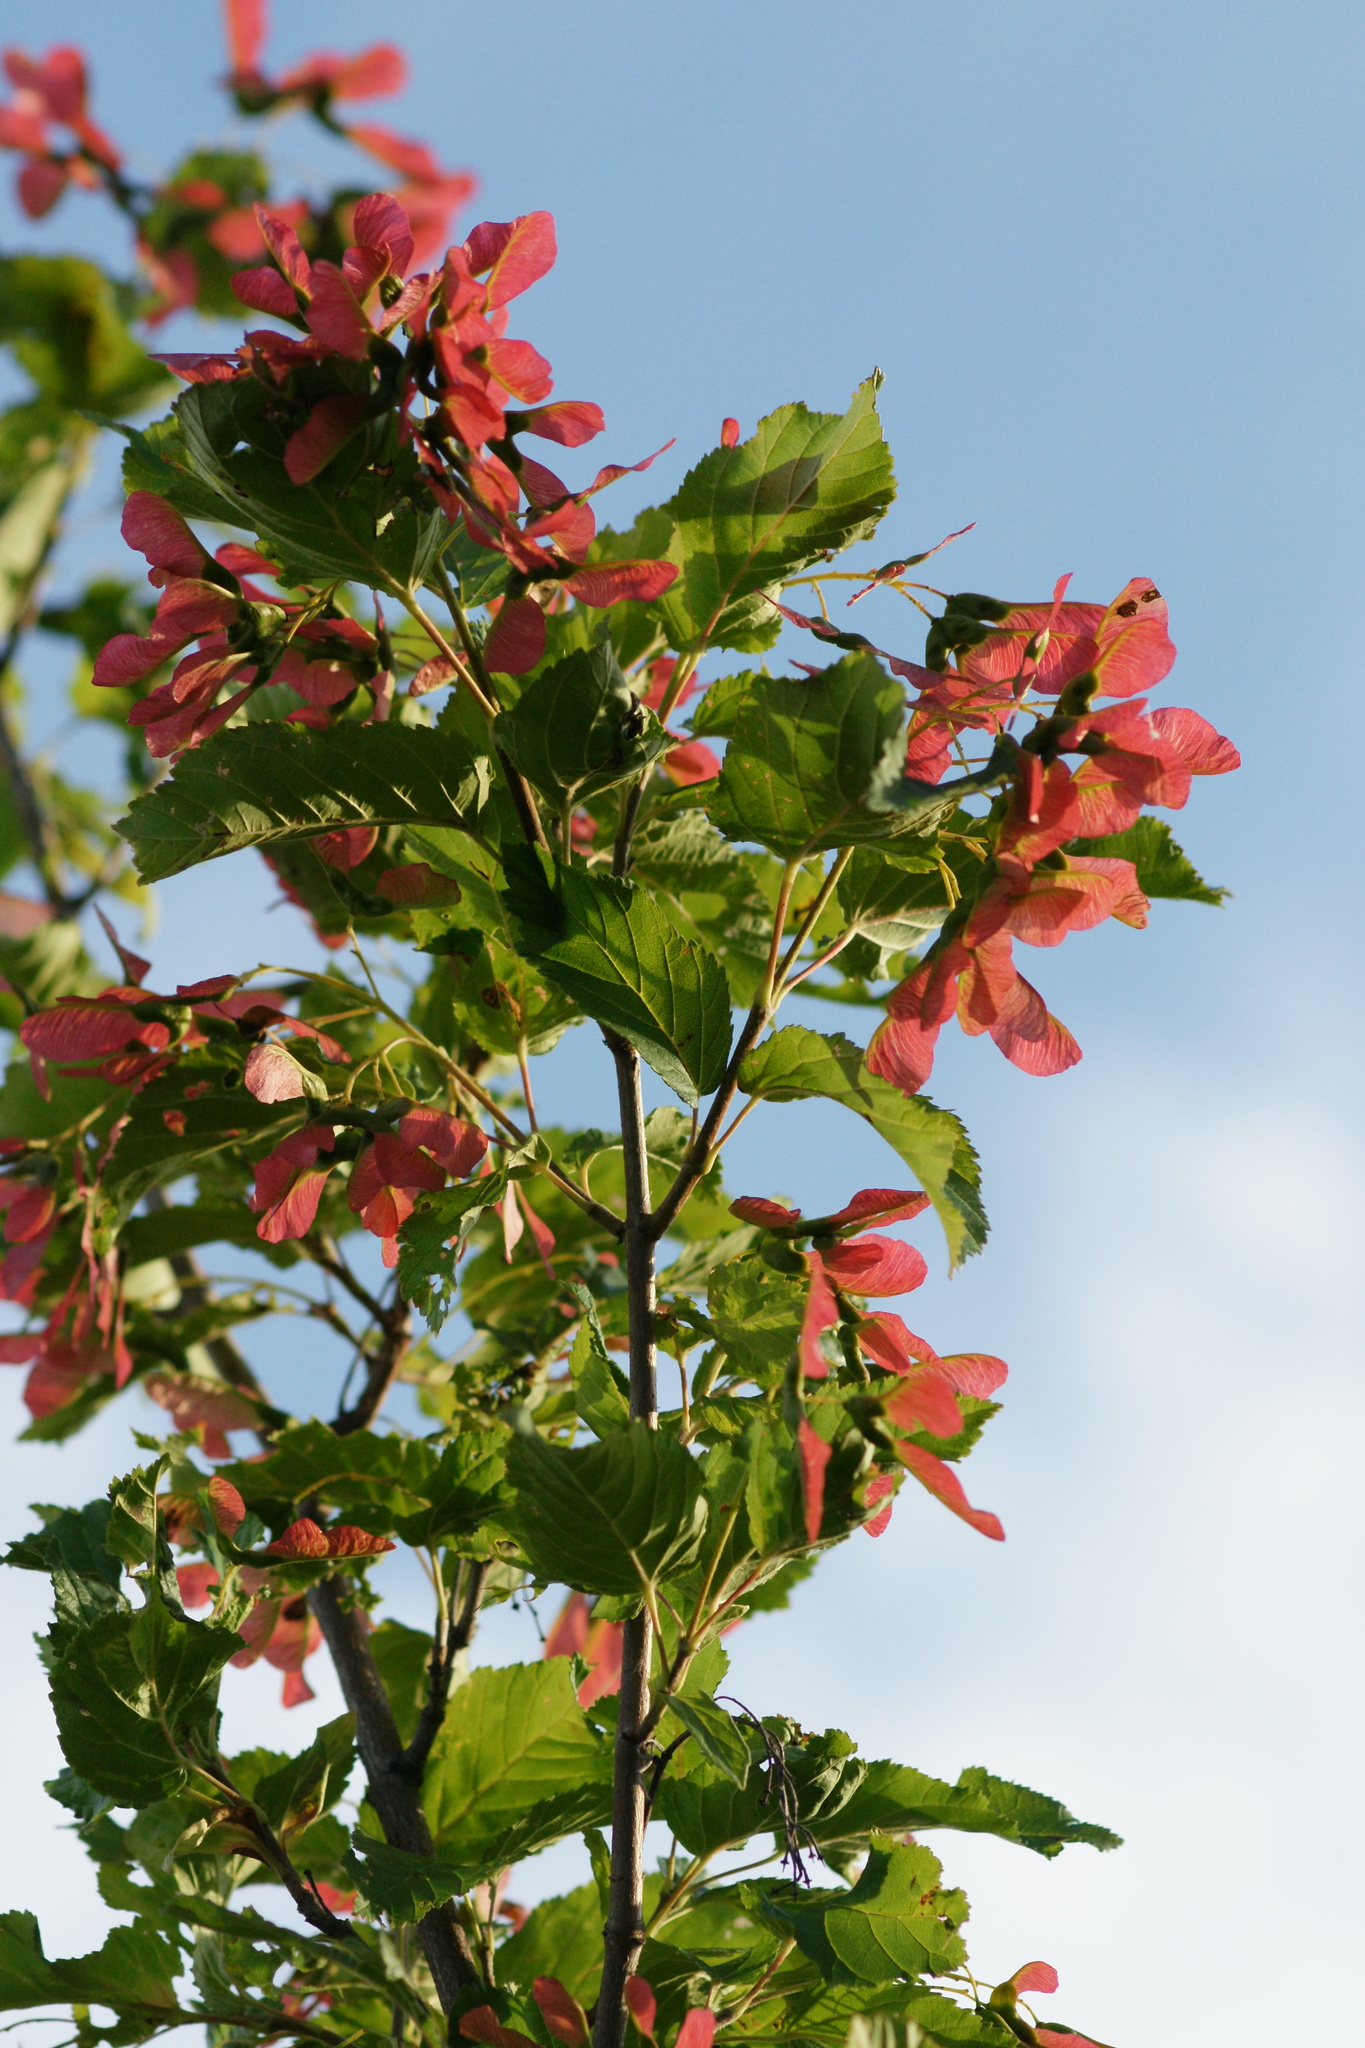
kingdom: Plantae
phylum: Tracheophyta
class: Magnoliopsida
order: Sapindales
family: Sapindaceae
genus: Acer
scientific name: Acer tataricum
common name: Tartar maple
